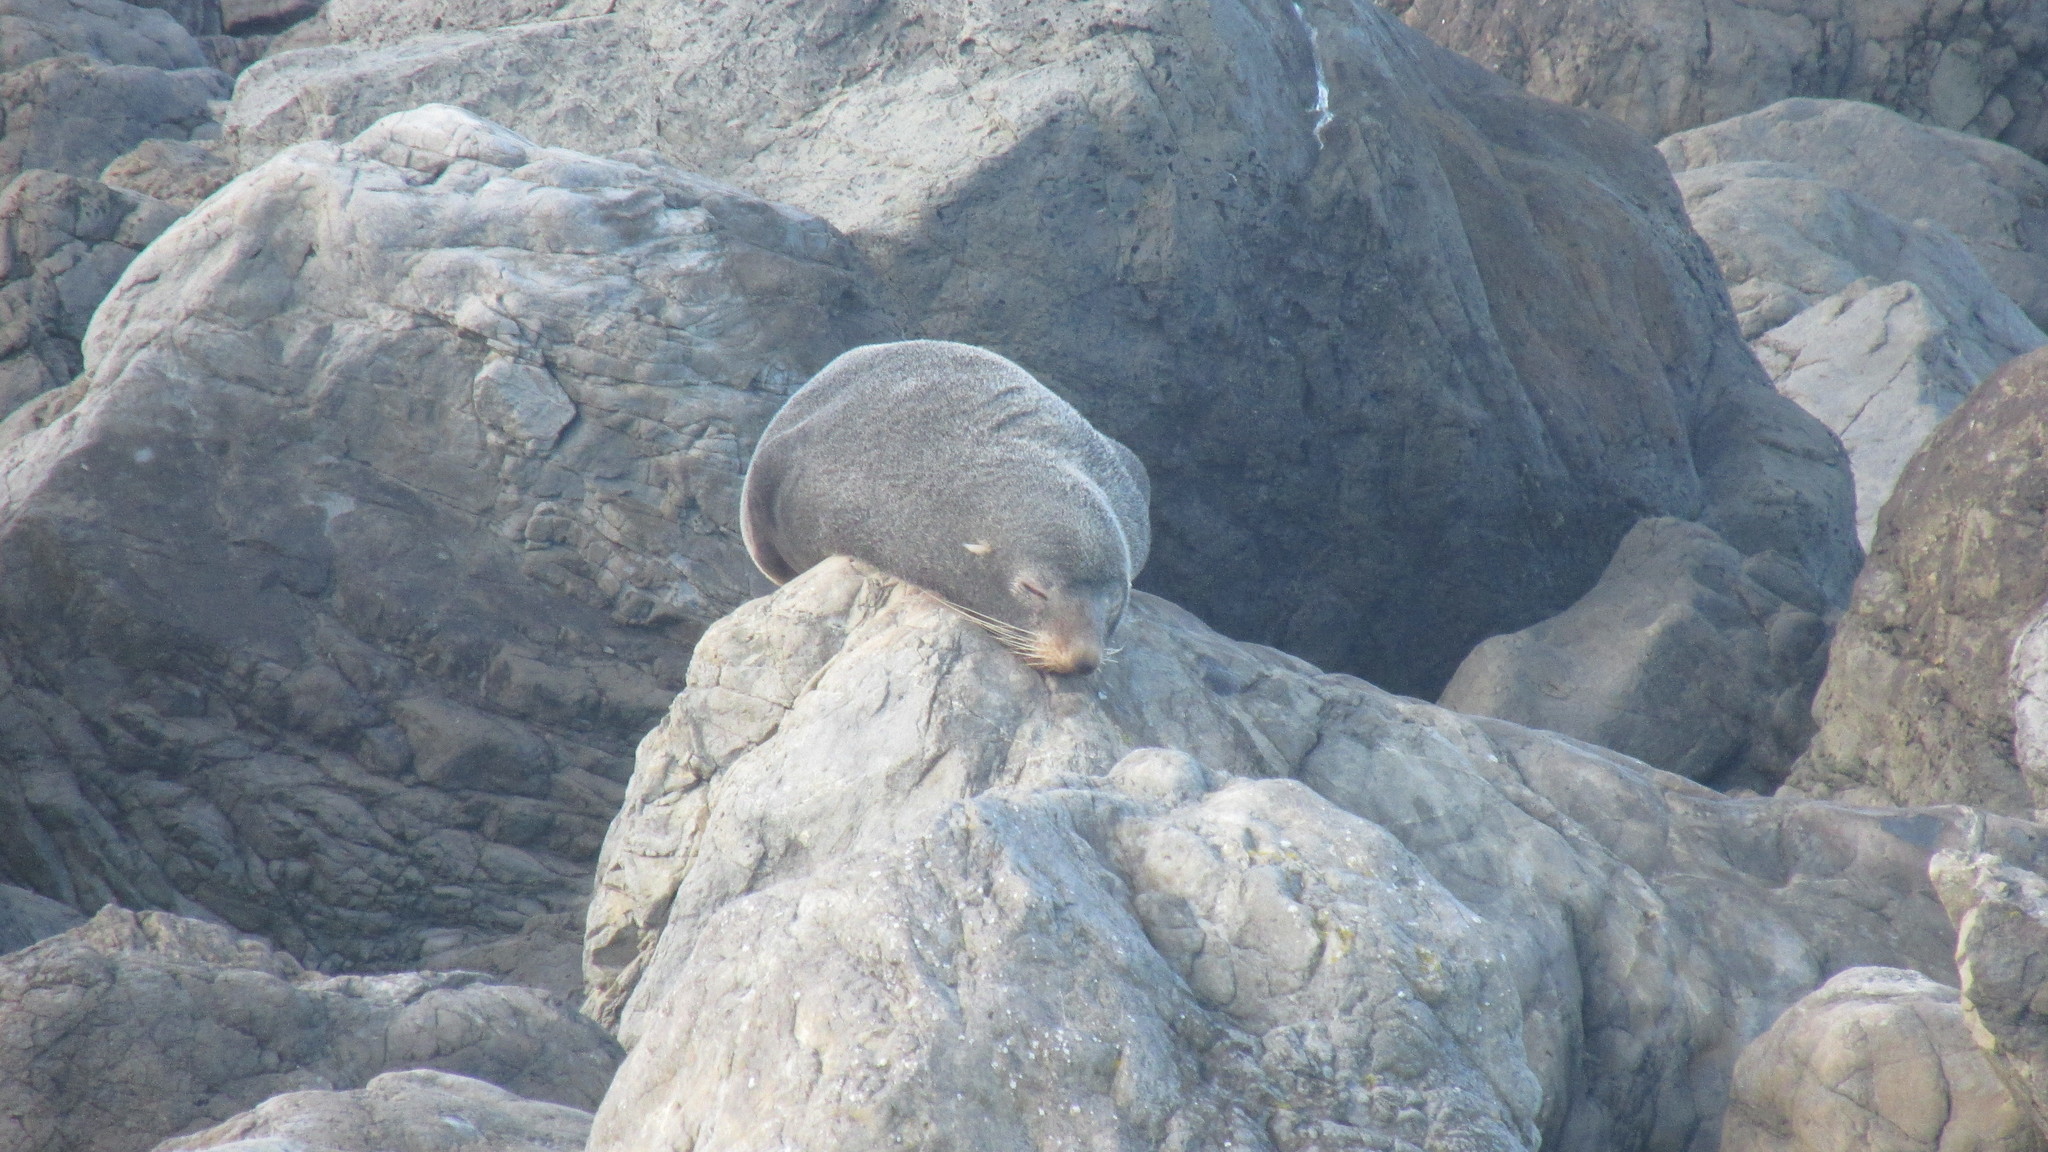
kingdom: Animalia
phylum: Chordata
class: Mammalia
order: Carnivora
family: Otariidae
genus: Arctocephalus
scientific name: Arctocephalus forsteri
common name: New zealand fur seal
